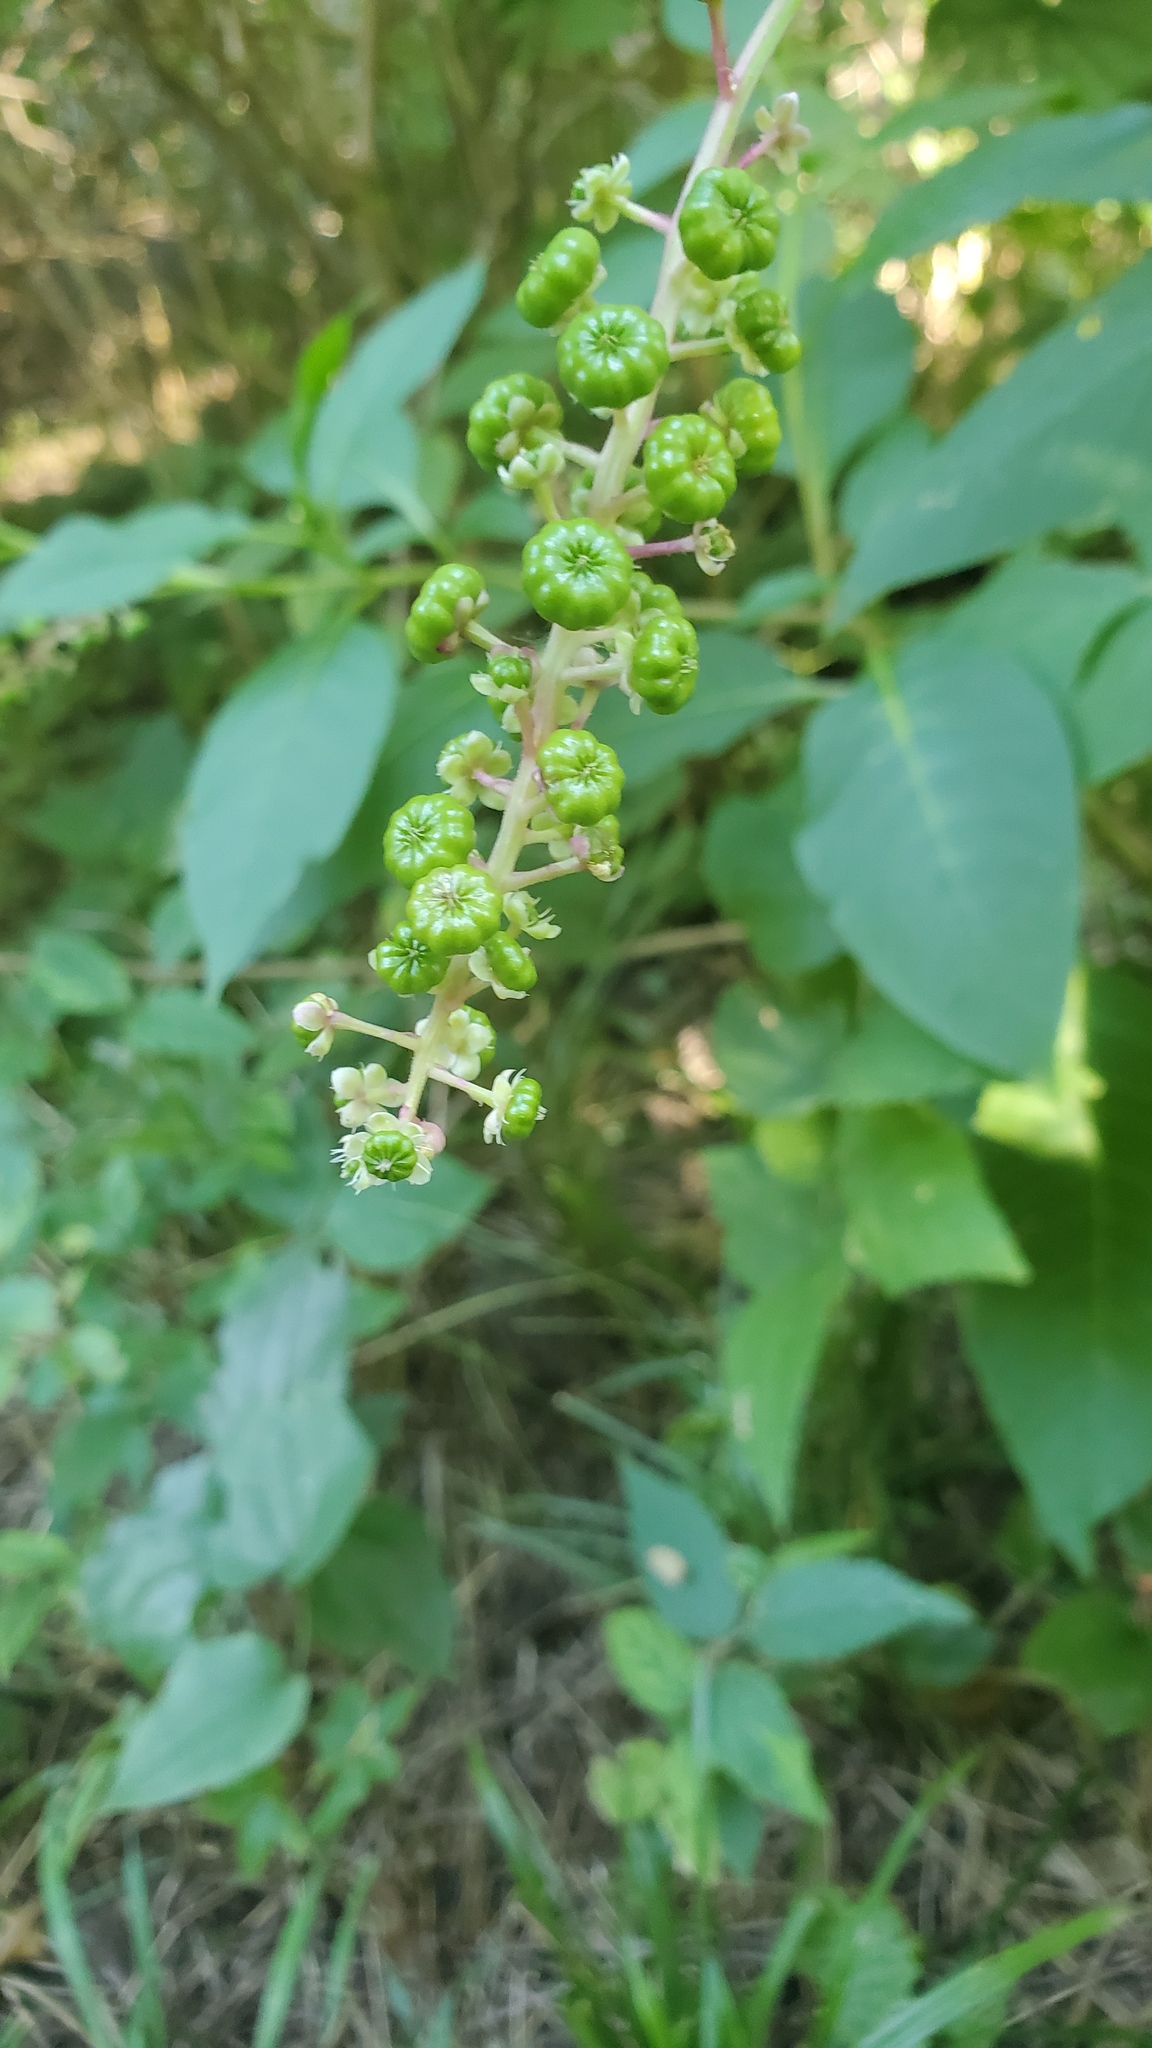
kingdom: Plantae
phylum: Tracheophyta
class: Magnoliopsida
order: Caryophyllales
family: Phytolaccaceae
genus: Phytolacca
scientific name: Phytolacca americana
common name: American pokeweed
